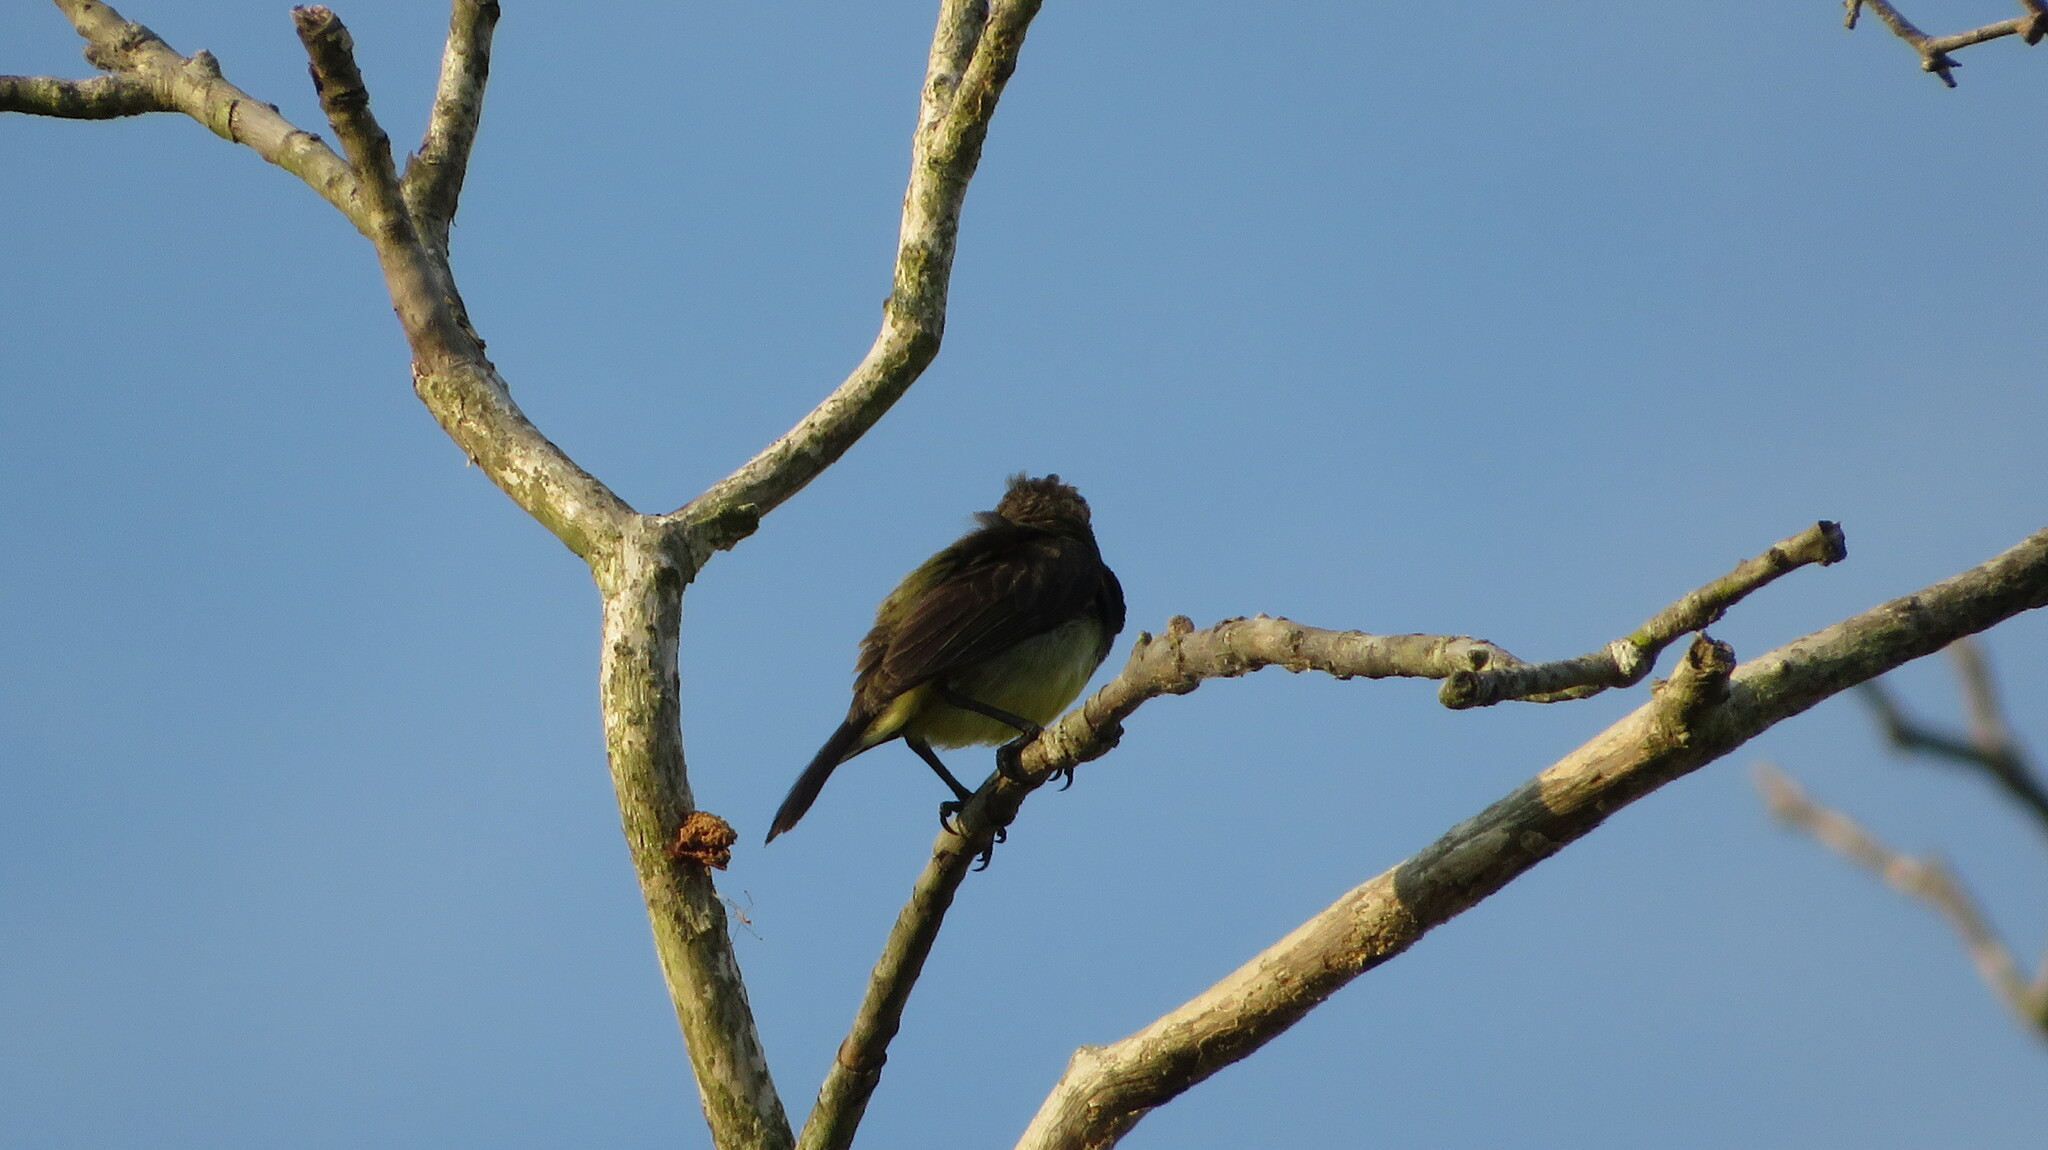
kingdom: Animalia
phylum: Chordata
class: Aves
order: Passeriformes
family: Nectariniidae
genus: Cinnyris
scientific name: Cinnyris
